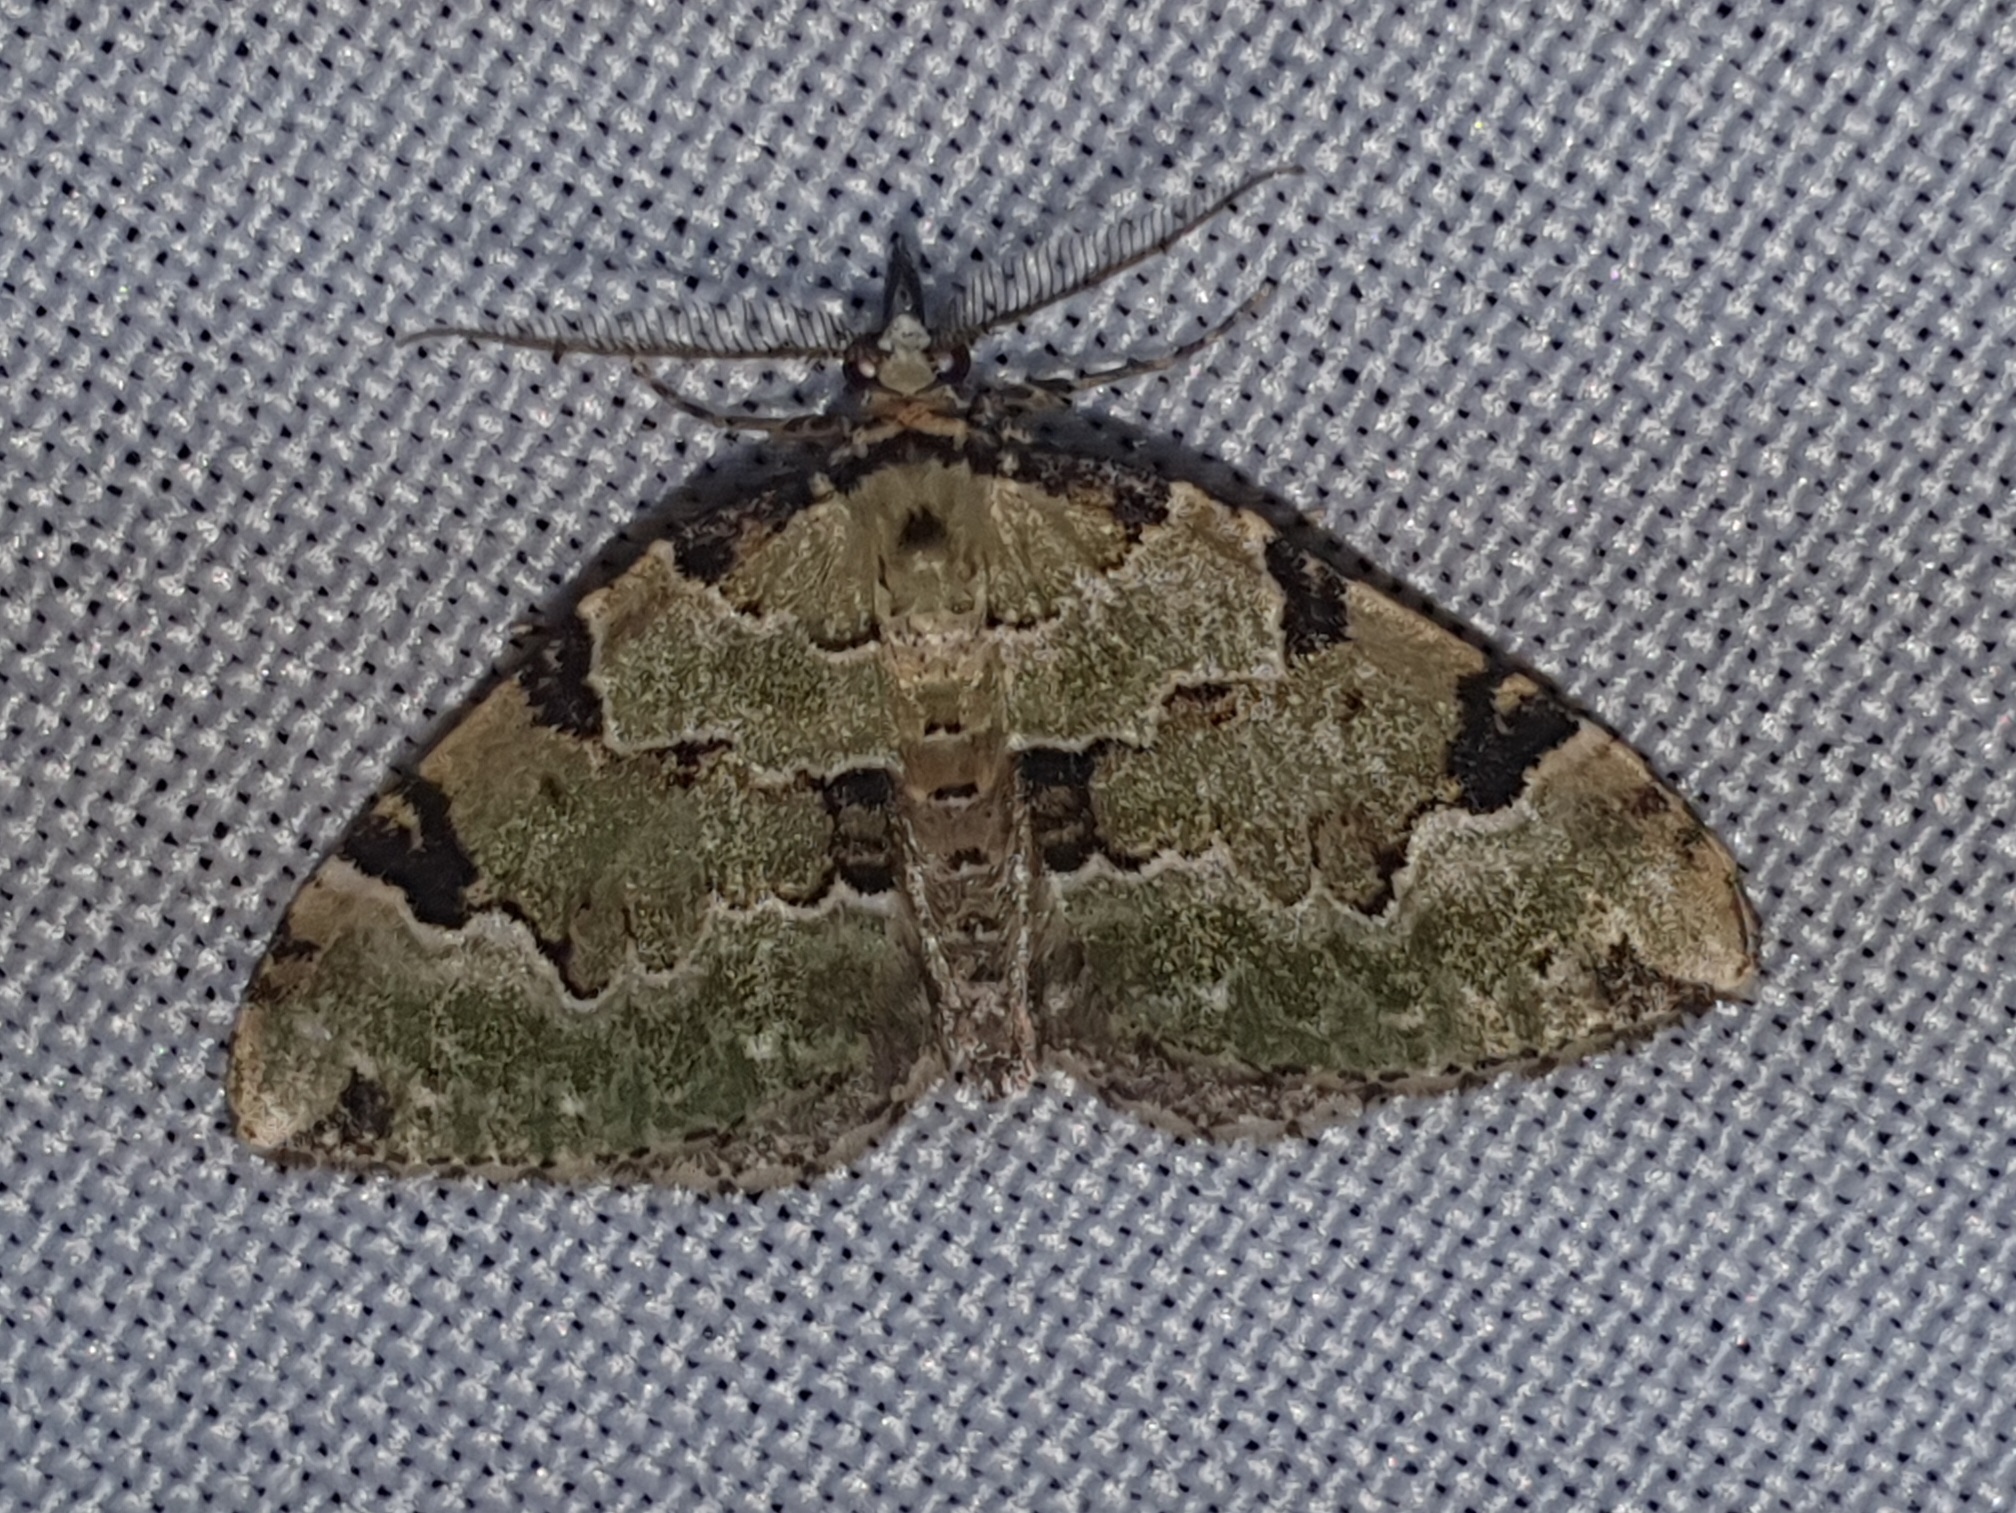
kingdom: Animalia
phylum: Arthropoda
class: Insecta
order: Lepidoptera
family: Geometridae
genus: Colostygia
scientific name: Colostygia pectinataria
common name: Green carpet
